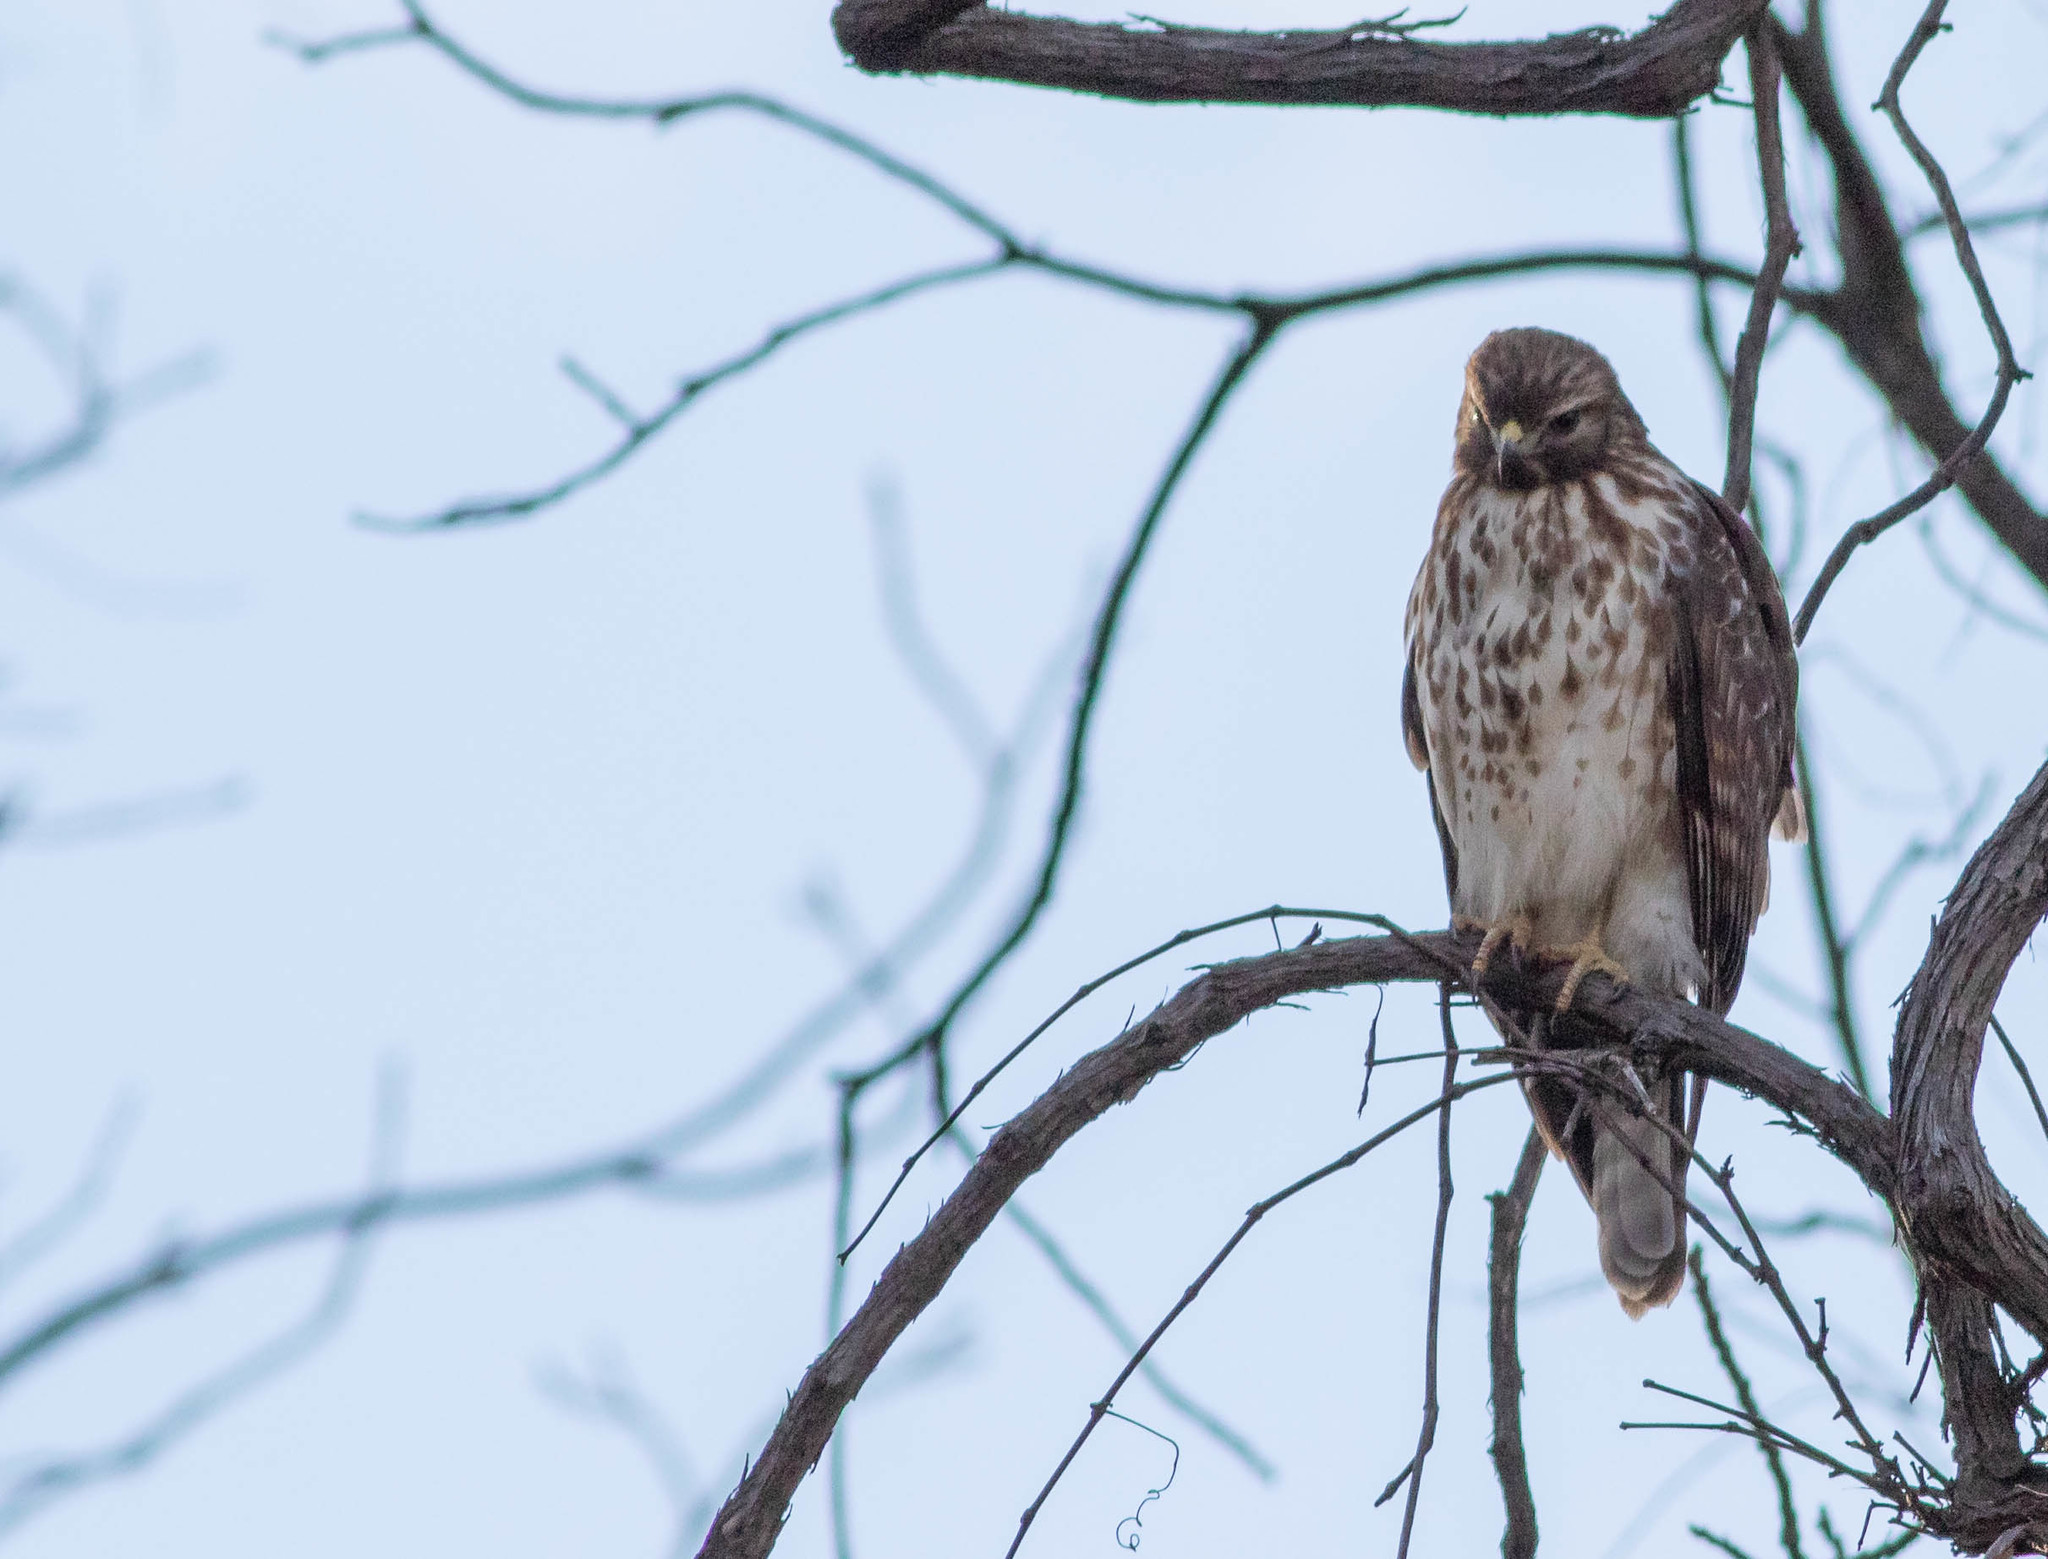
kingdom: Animalia
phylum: Chordata
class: Aves
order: Accipitriformes
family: Accipitridae
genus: Buteo
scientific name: Buteo lineatus
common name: Red-shouldered hawk
